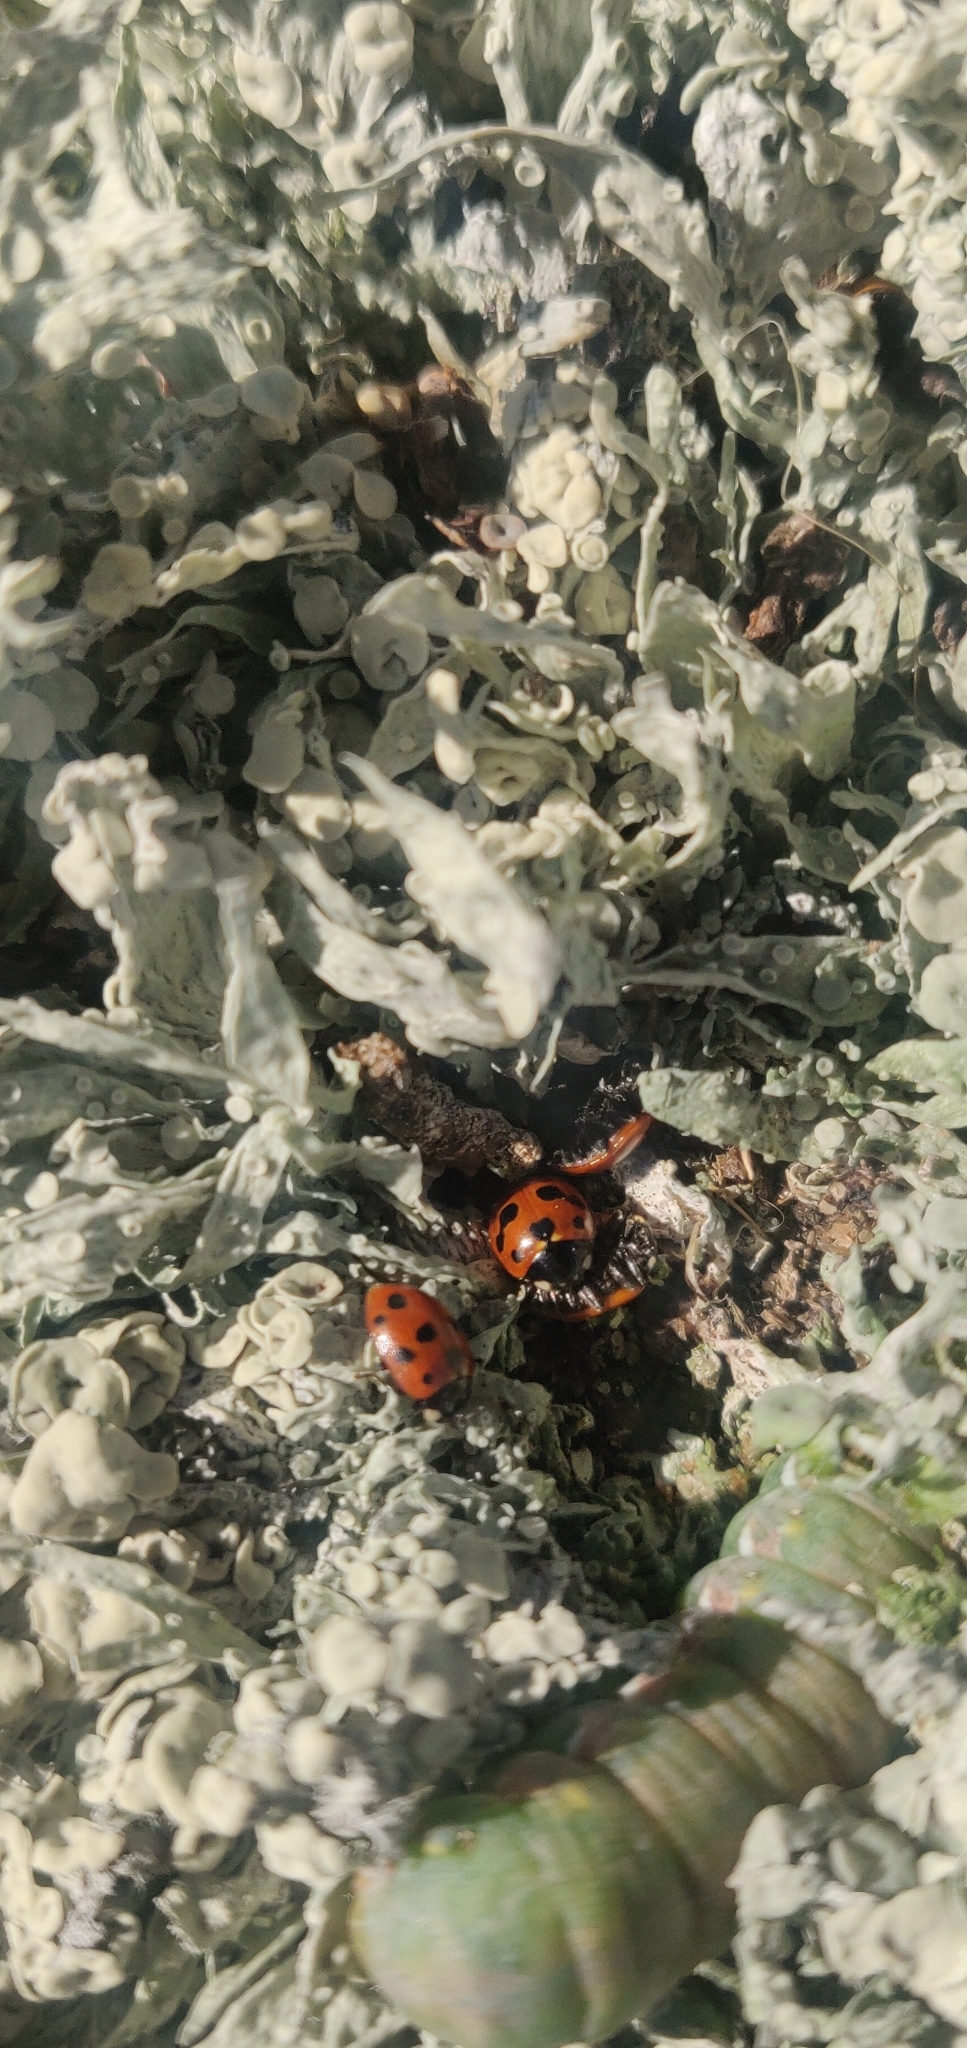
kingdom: Animalia
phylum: Arthropoda
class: Insecta
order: Coleoptera
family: Coccinellidae
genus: Coccinella
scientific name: Coccinella undecimpunctata
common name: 11-spot ladybird
